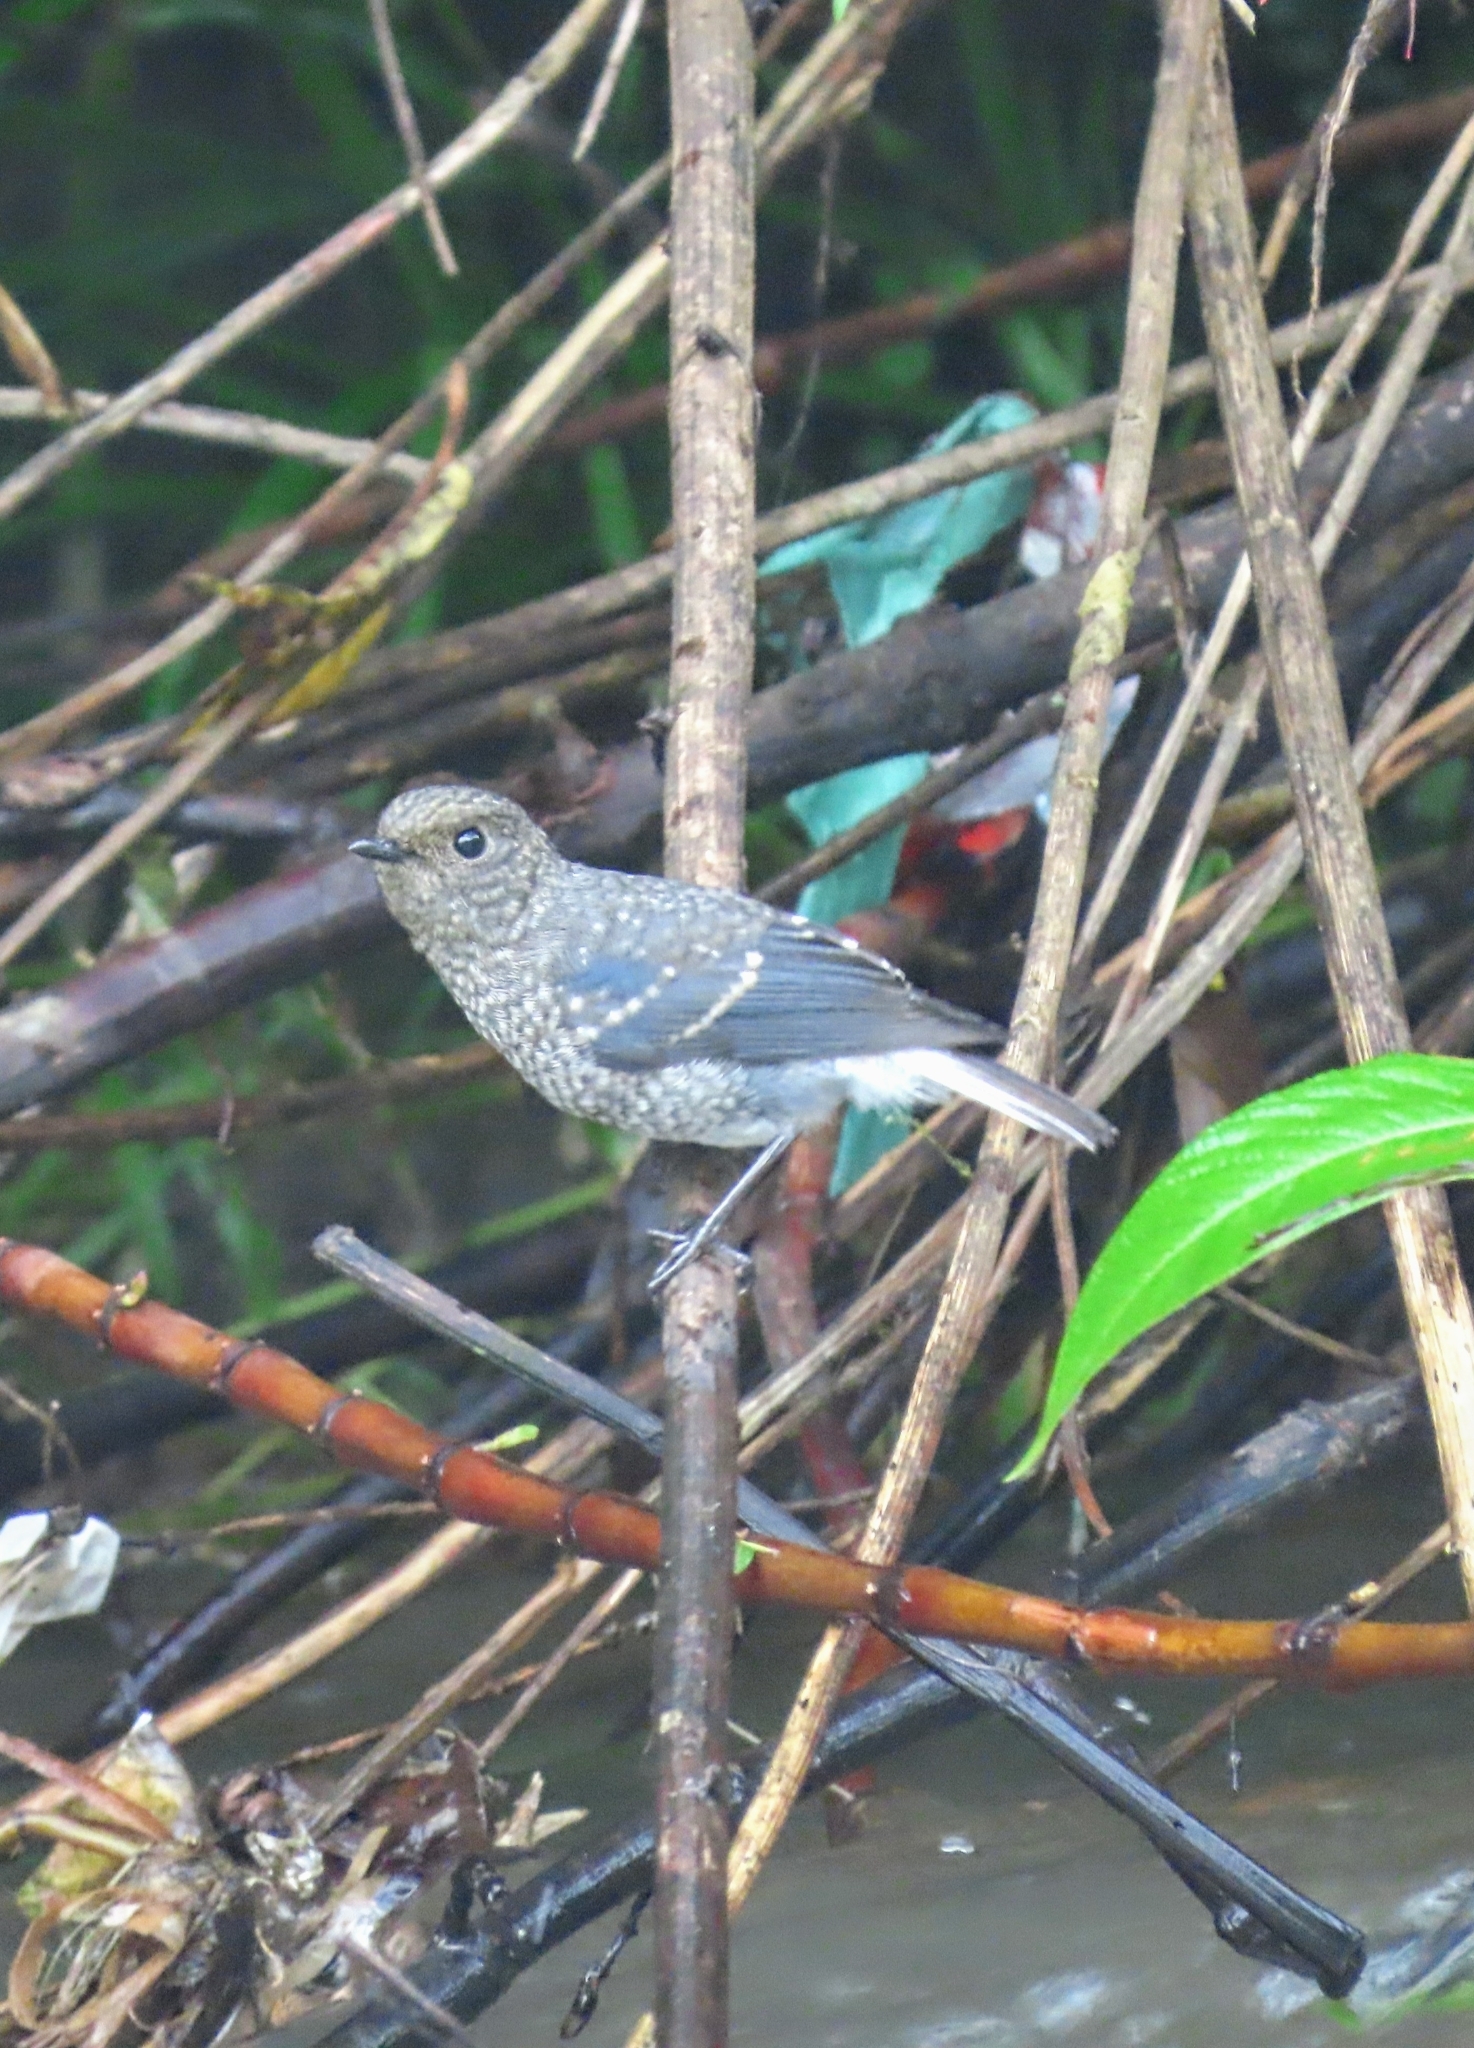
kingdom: Animalia
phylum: Chordata
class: Aves
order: Passeriformes
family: Muscicapidae
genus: Phoenicurus
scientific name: Phoenicurus fuliginosus
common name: Plumbeous water redstart
